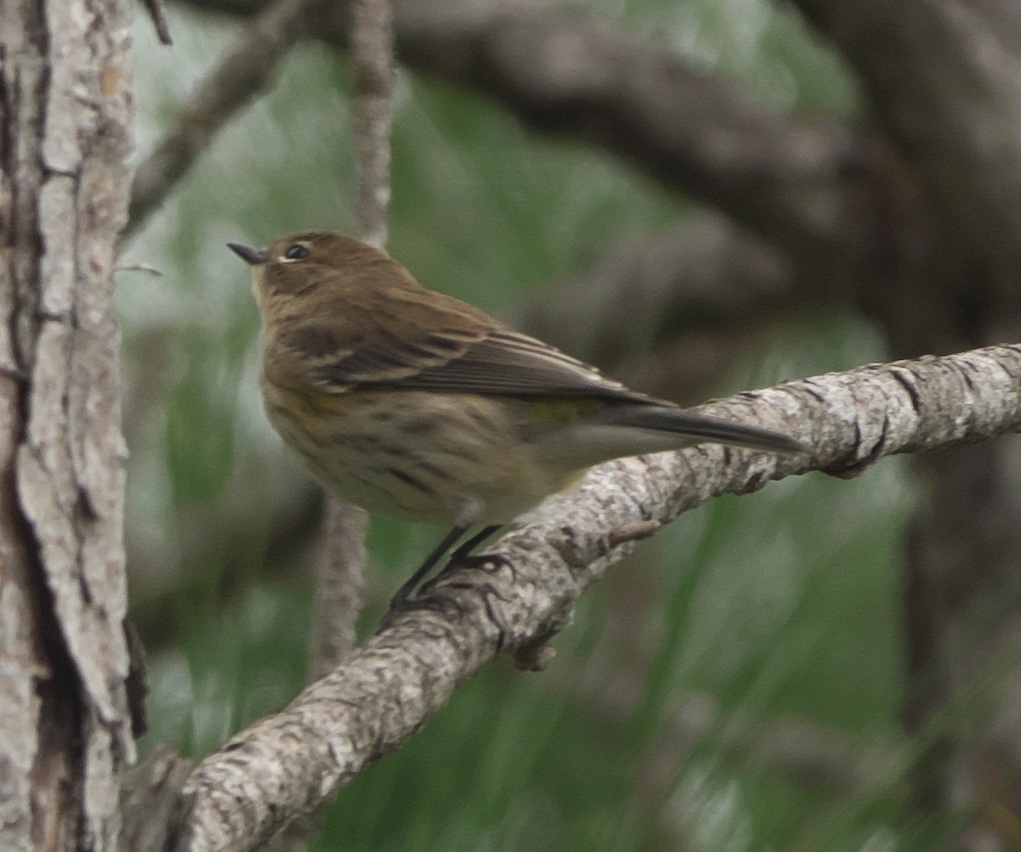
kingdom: Animalia
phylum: Chordata
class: Aves
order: Passeriformes
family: Parulidae
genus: Setophaga
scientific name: Setophaga coronata
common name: Myrtle warbler
